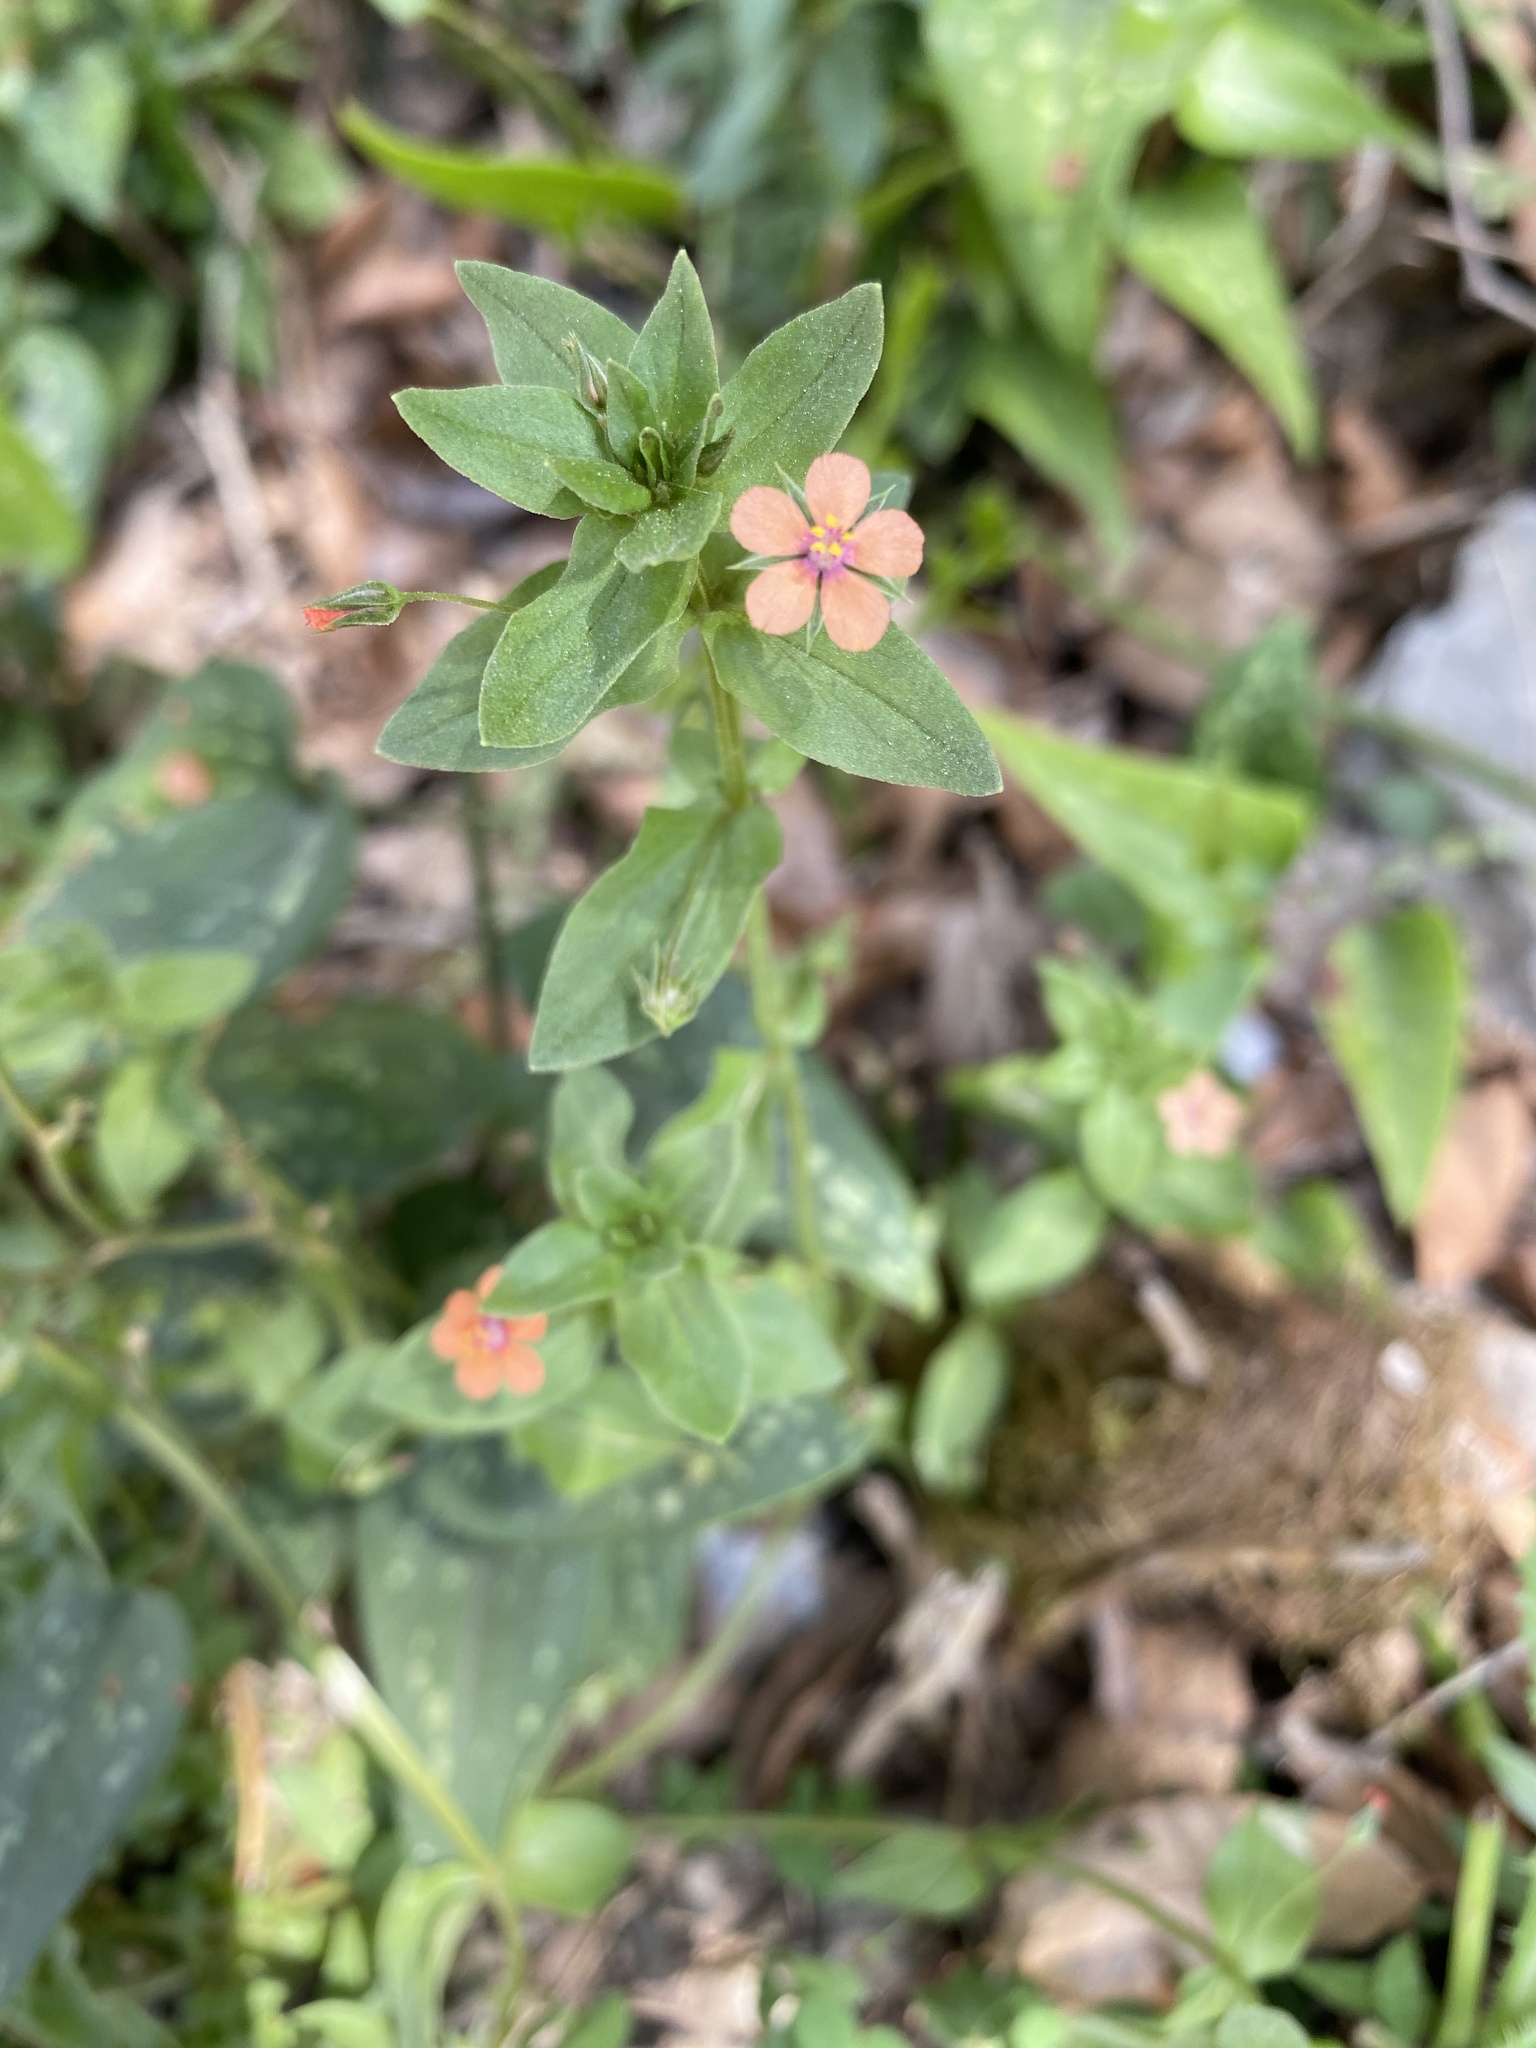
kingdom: Plantae
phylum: Tracheophyta
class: Magnoliopsida
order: Ericales
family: Primulaceae
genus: Lysimachia
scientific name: Lysimachia arvensis
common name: Scarlet pimpernel
